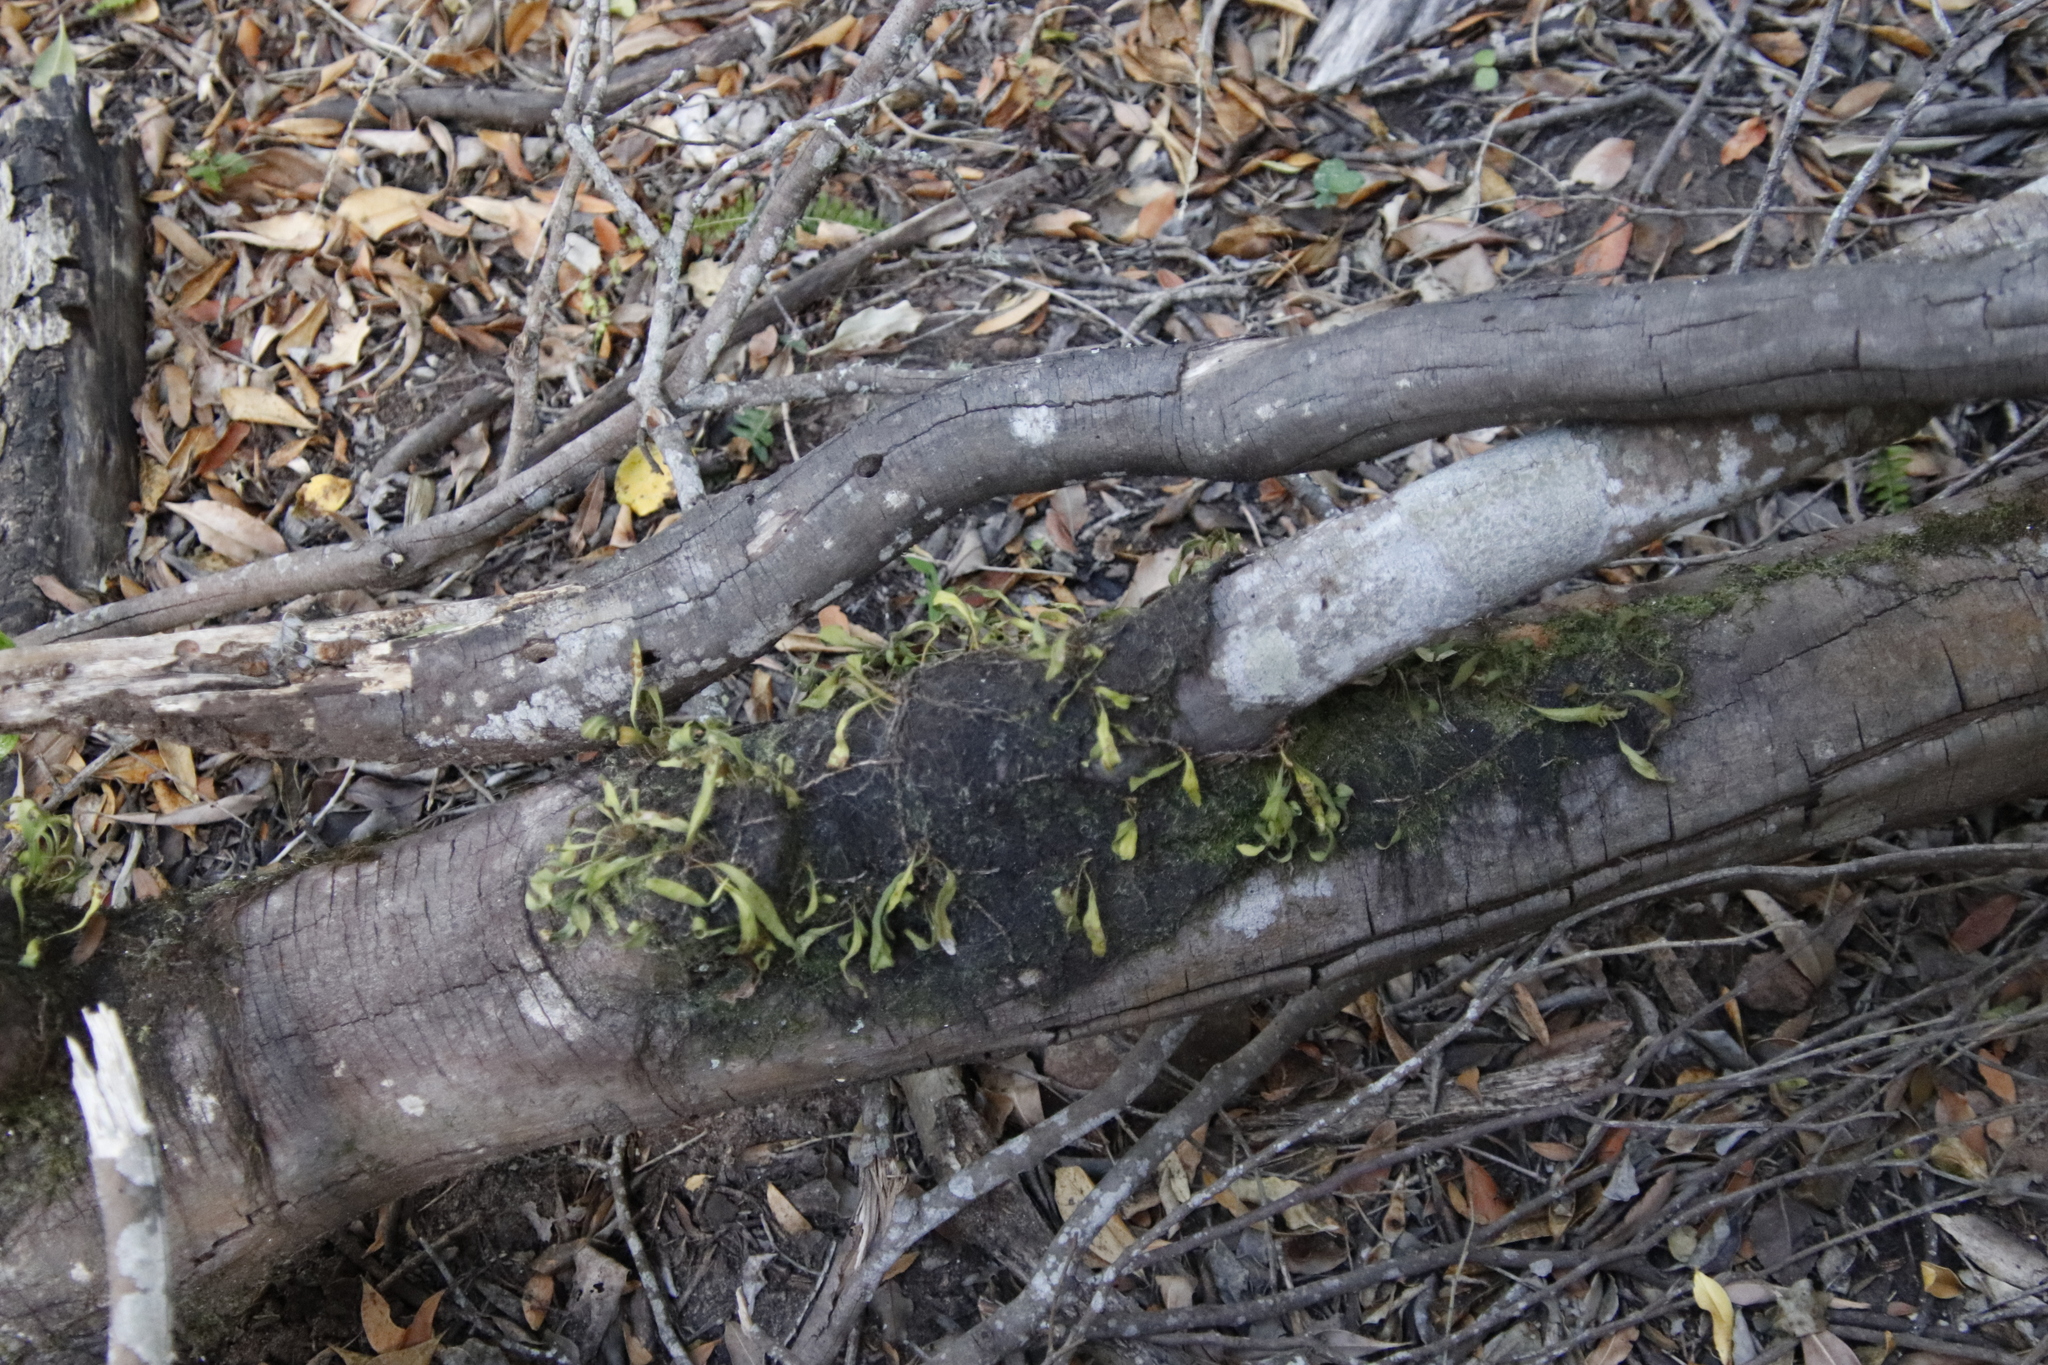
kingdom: Plantae
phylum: Tracheophyta
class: Polypodiopsida
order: Polypodiales
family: Polypodiaceae
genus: Pleopeltis
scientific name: Pleopeltis macrocarpa
